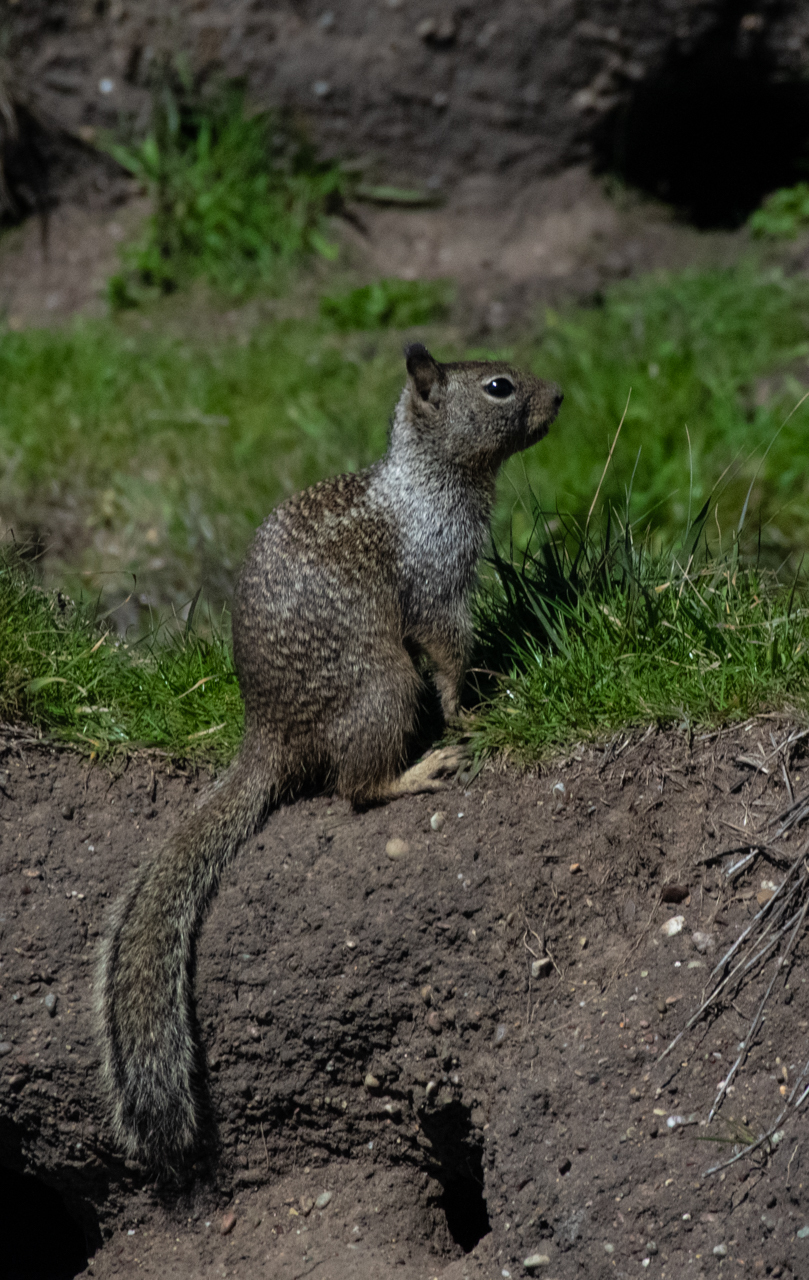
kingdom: Animalia
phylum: Chordata
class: Mammalia
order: Rodentia
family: Sciuridae
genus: Otospermophilus
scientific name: Otospermophilus beecheyi
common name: California ground squirrel
